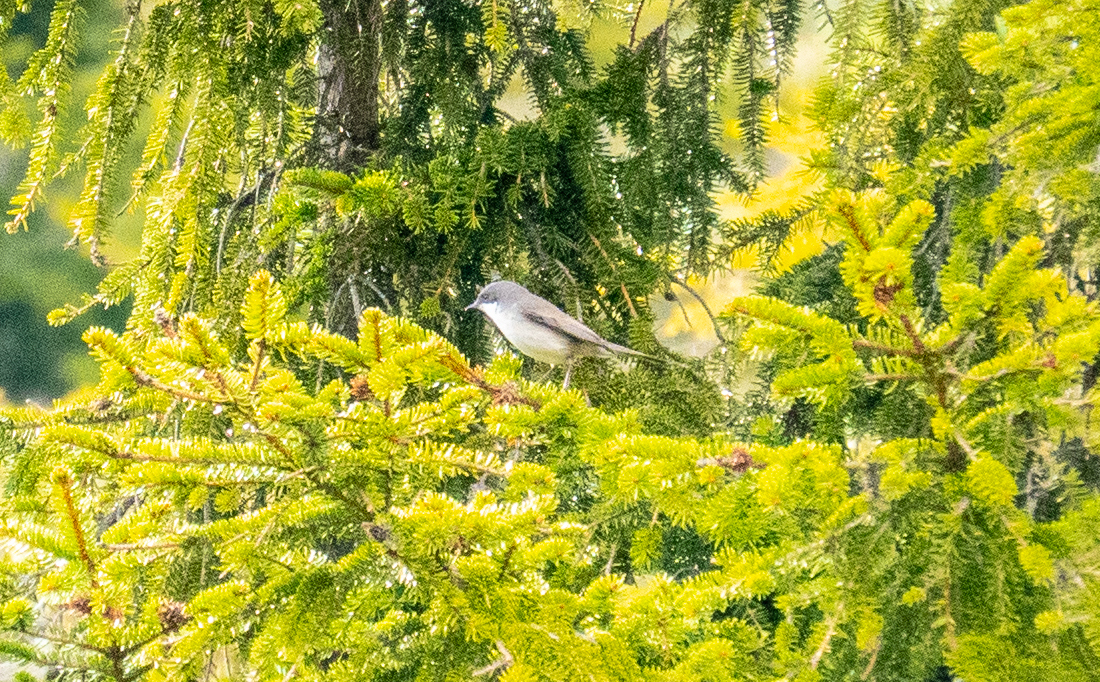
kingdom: Animalia
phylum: Chordata
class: Aves
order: Passeriformes
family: Sylviidae
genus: Sylvia
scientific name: Sylvia curruca
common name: Lesser whitethroat
